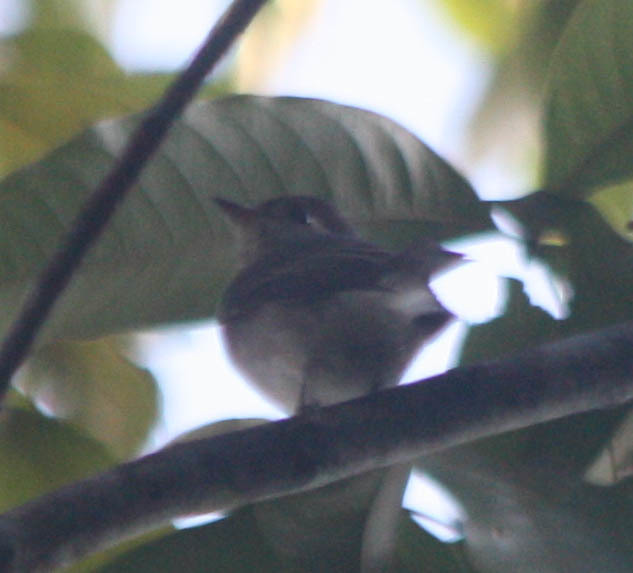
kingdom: Animalia
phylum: Chordata
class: Aves
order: Passeriformes
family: Muscicapidae
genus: Muscicapa
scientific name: Muscicapa latirostris
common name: Asian brown flycatcher
